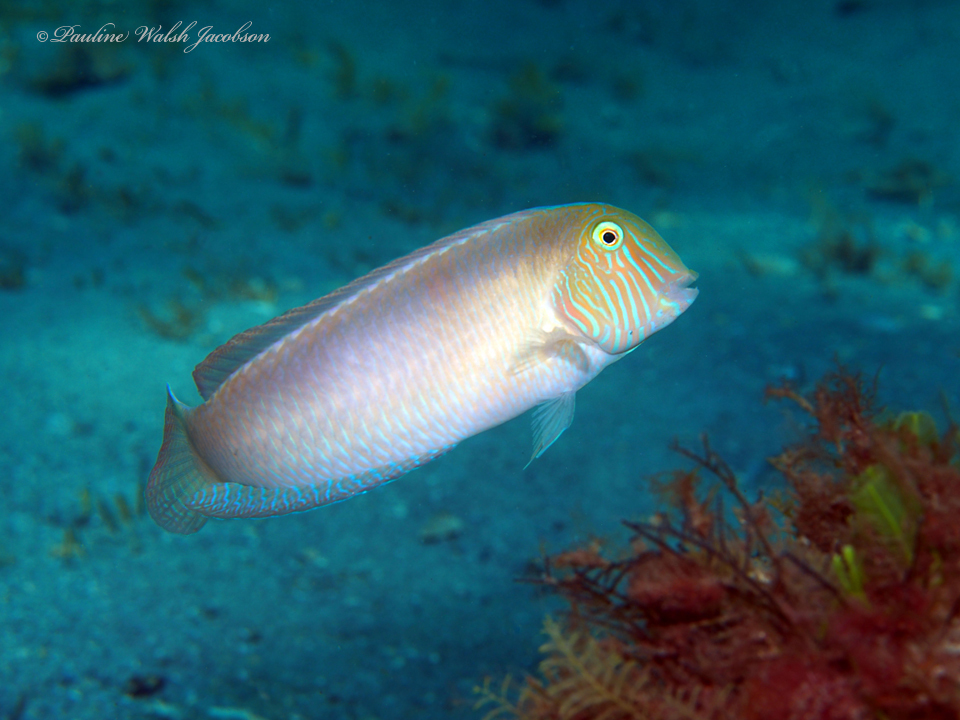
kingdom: Animalia
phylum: Chordata
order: Perciformes
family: Labridae
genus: Xyrichtys
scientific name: Xyrichtys novacula
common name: Pearly razorfish
